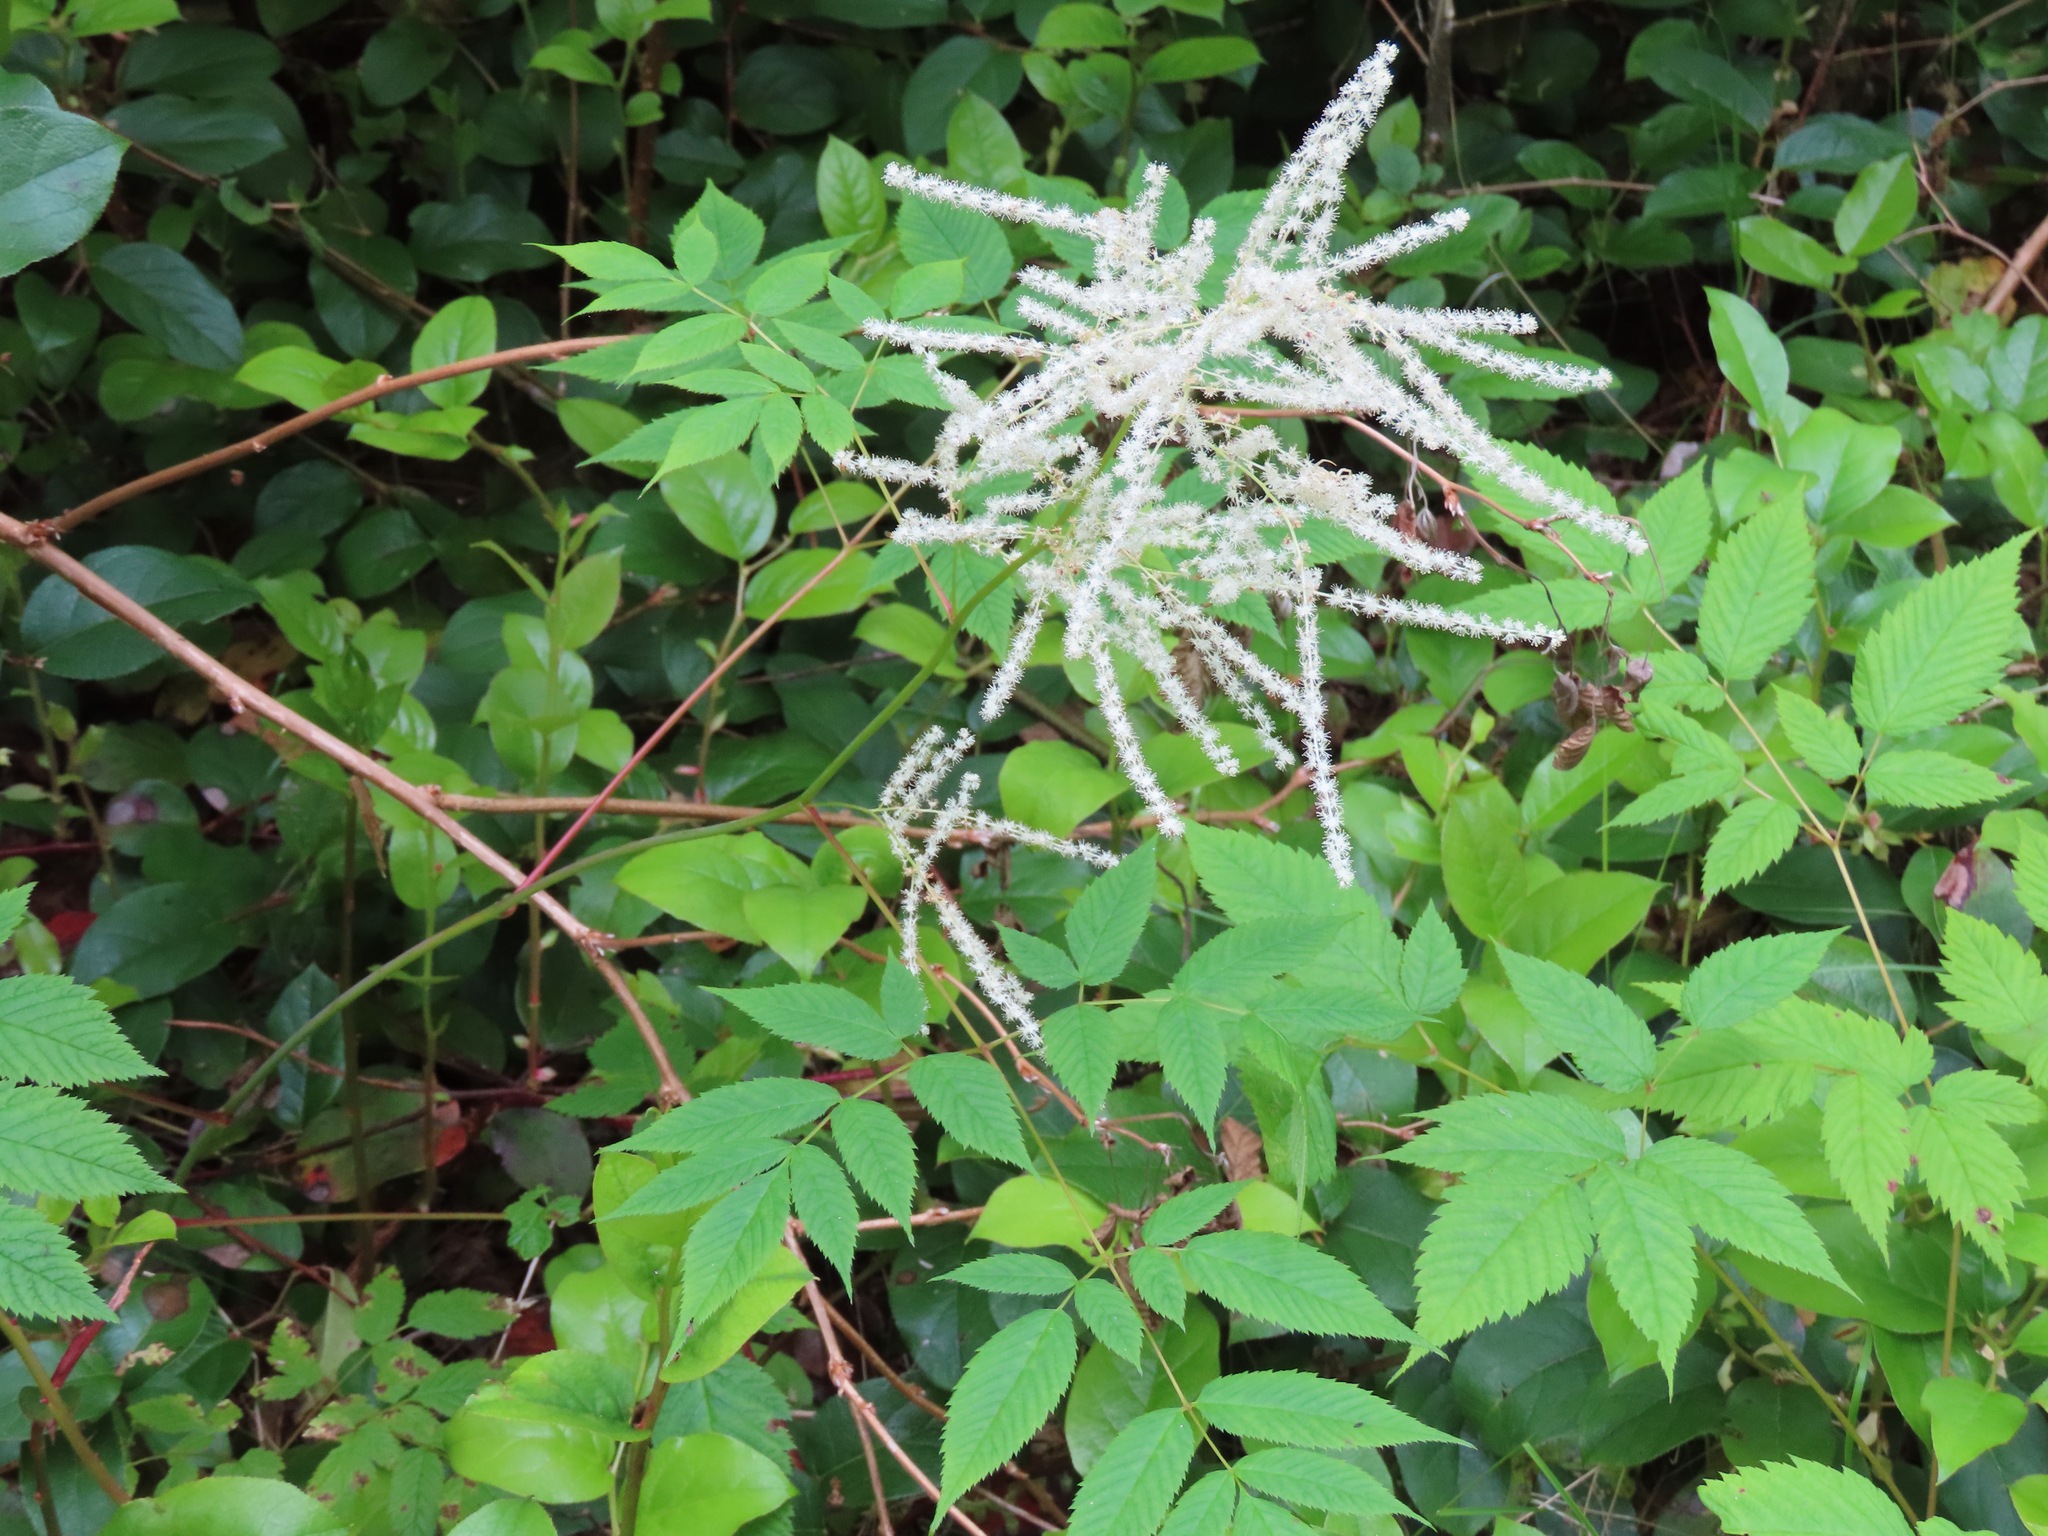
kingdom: Plantae
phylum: Tracheophyta
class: Magnoliopsida
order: Rosales
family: Rosaceae
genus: Aruncus
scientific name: Aruncus dioicus
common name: Buck's-beard
